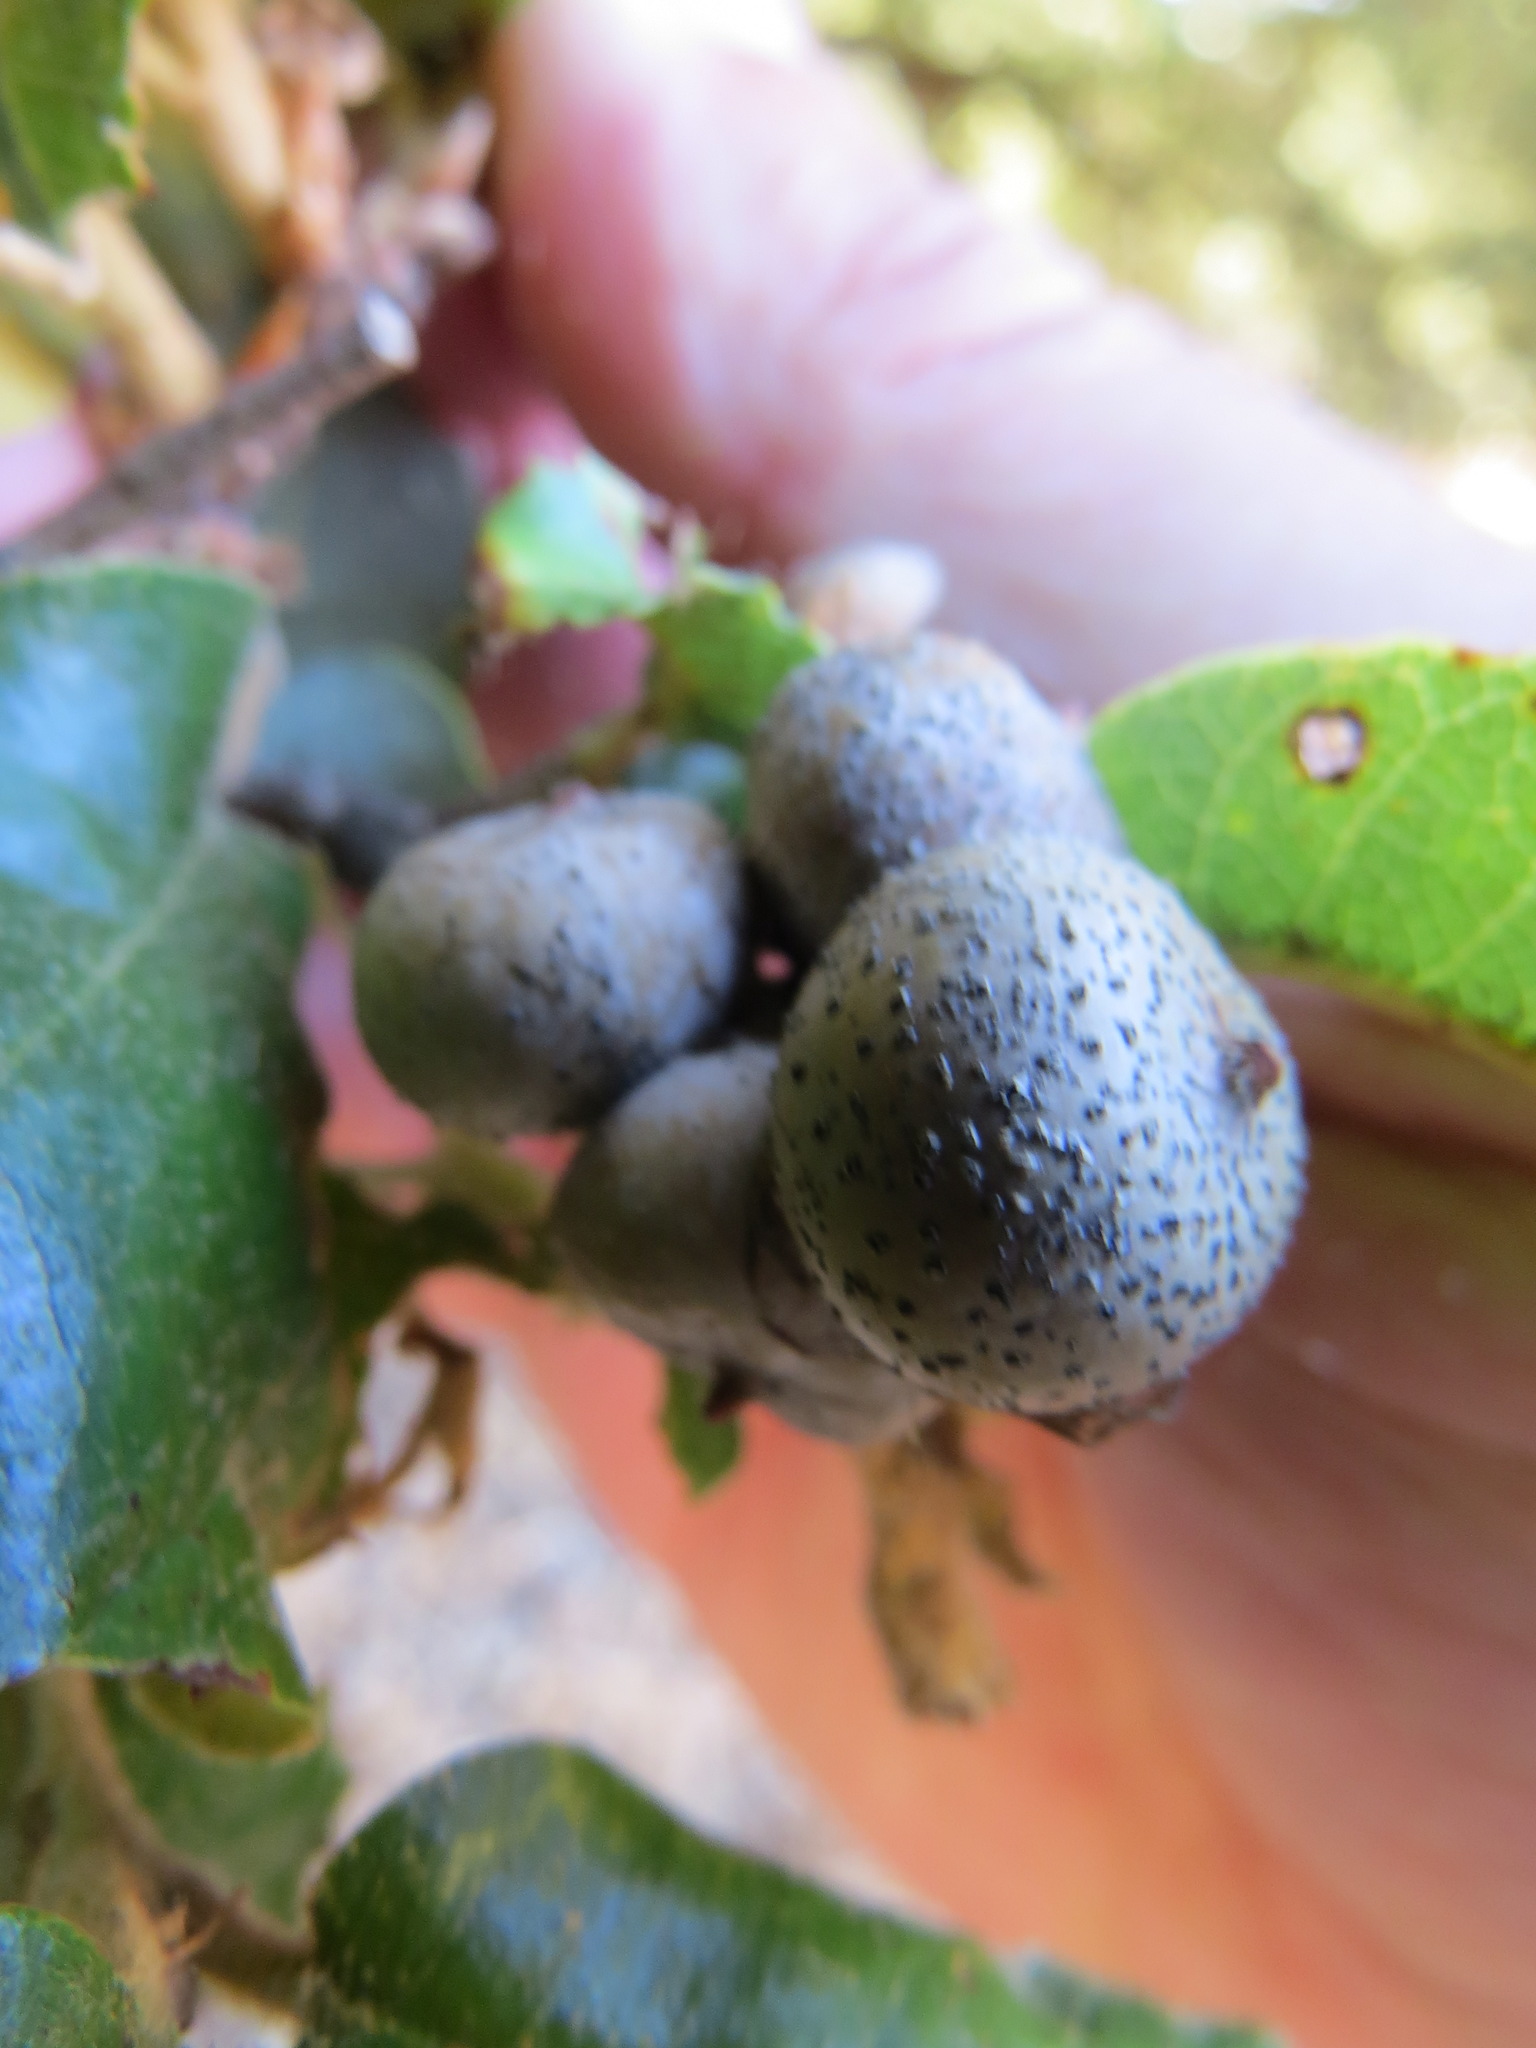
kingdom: Animalia
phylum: Arthropoda
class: Insecta
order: Hymenoptera
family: Cynipidae
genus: Heteroecus
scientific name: Heteroecus
